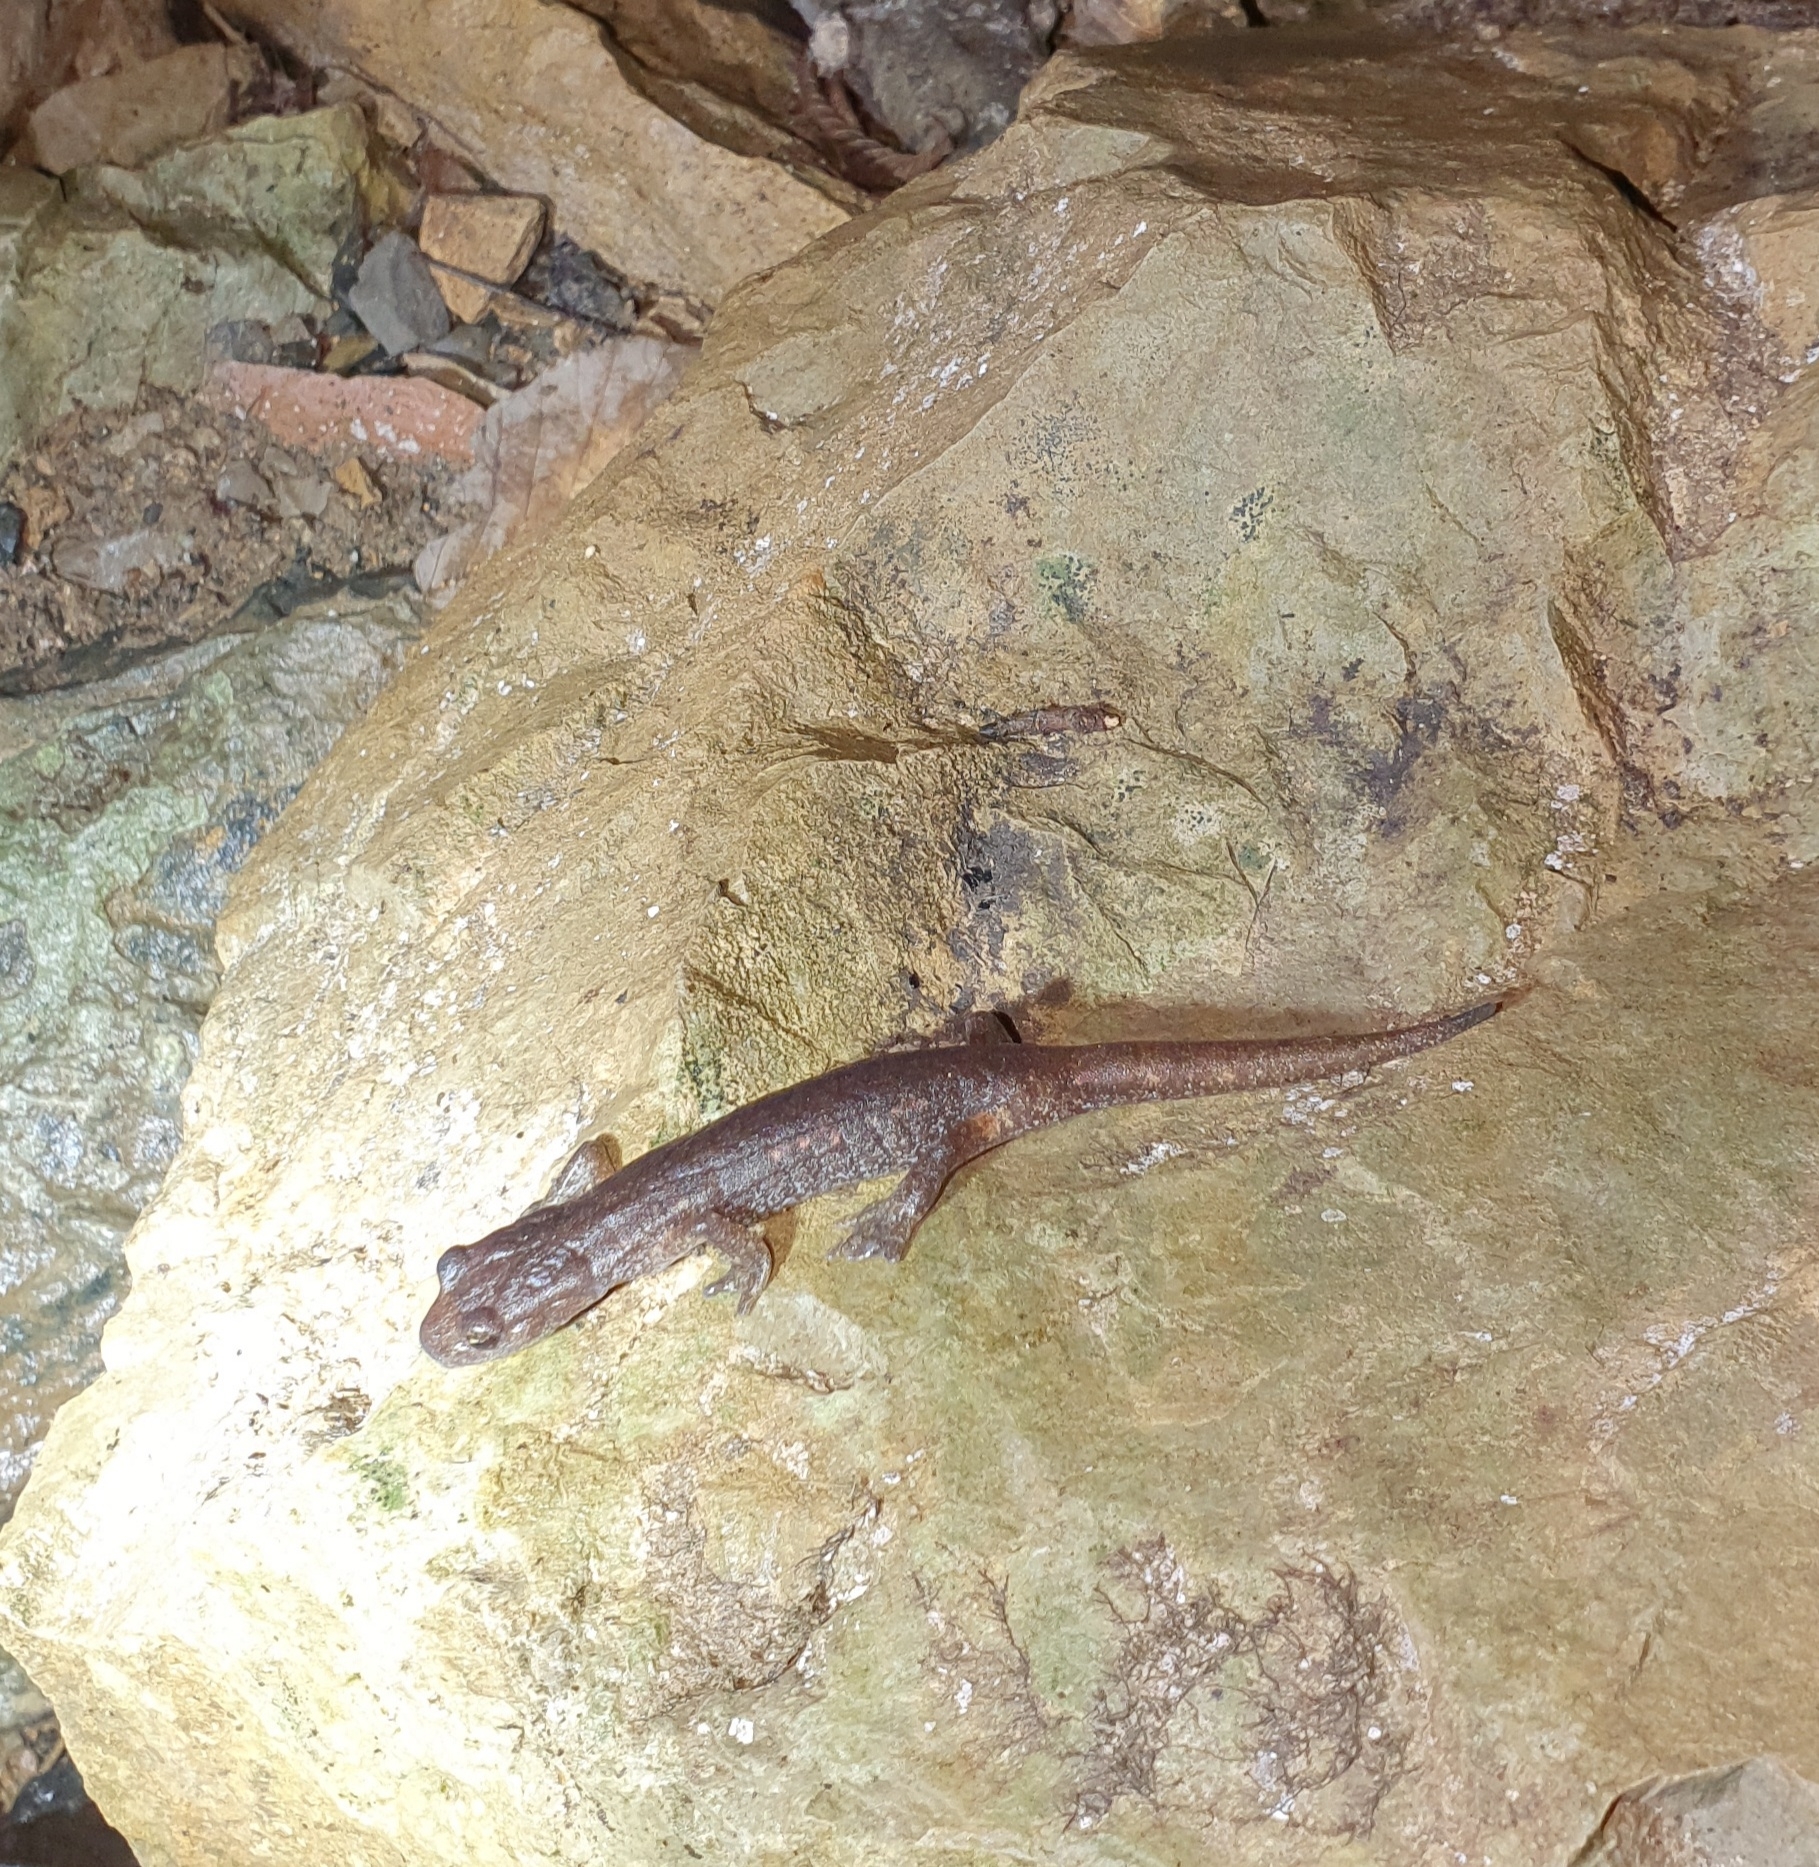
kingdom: Animalia
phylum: Chordata
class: Amphibia
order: Caudata
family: Plethodontidae
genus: Speleomantes
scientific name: Speleomantes ambrosii
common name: Ambrosi's cave salamander
